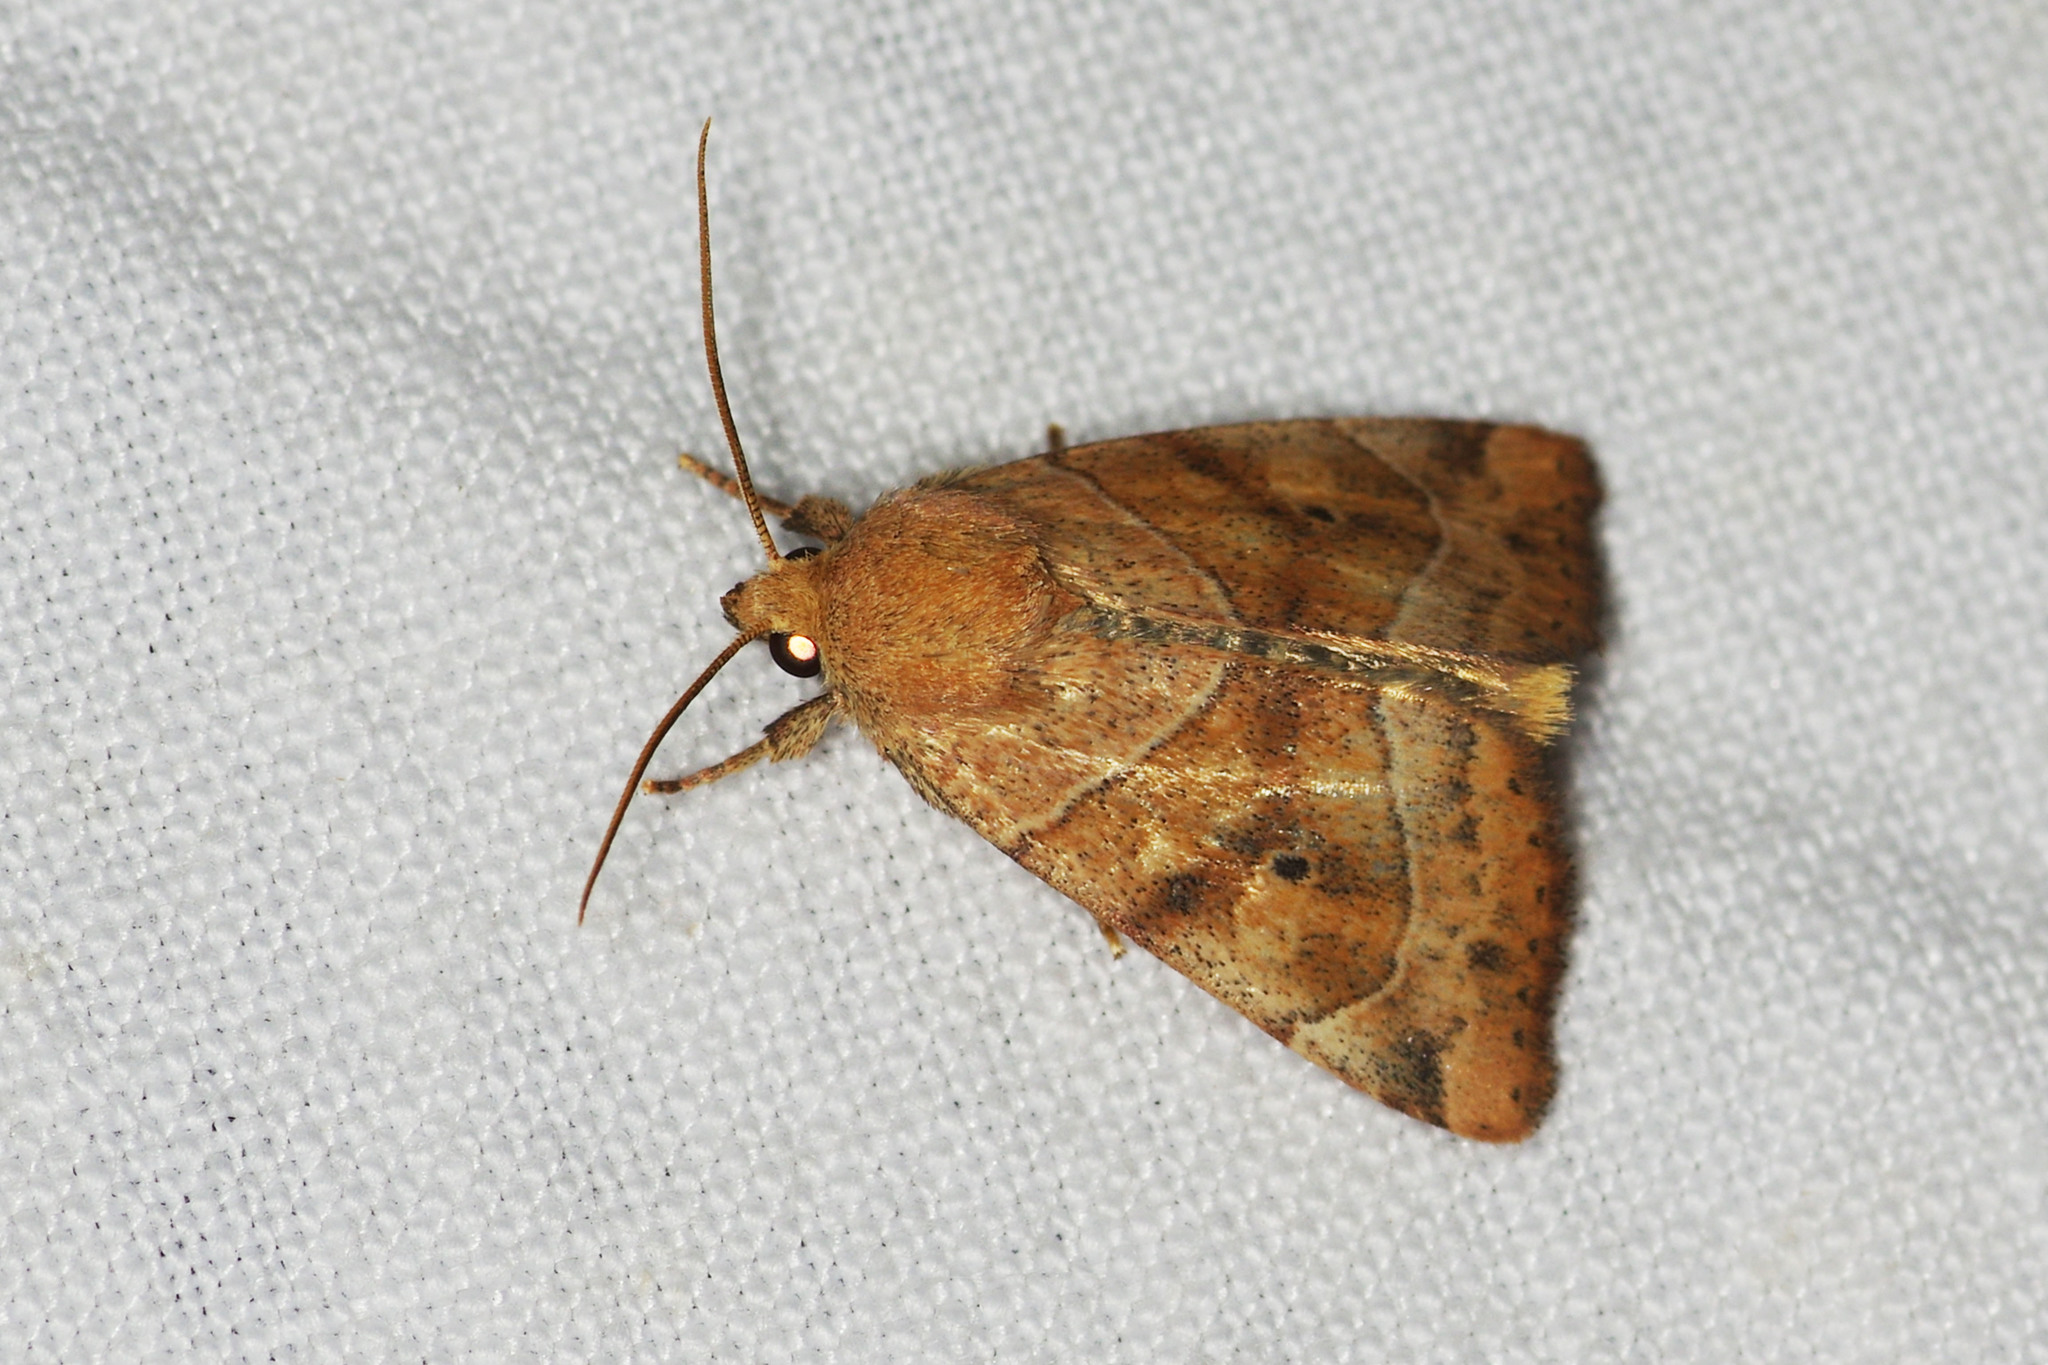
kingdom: Animalia
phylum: Arthropoda
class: Insecta
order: Lepidoptera
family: Noctuidae
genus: Cosmia
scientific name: Cosmia trapezina
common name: Dun-bar
